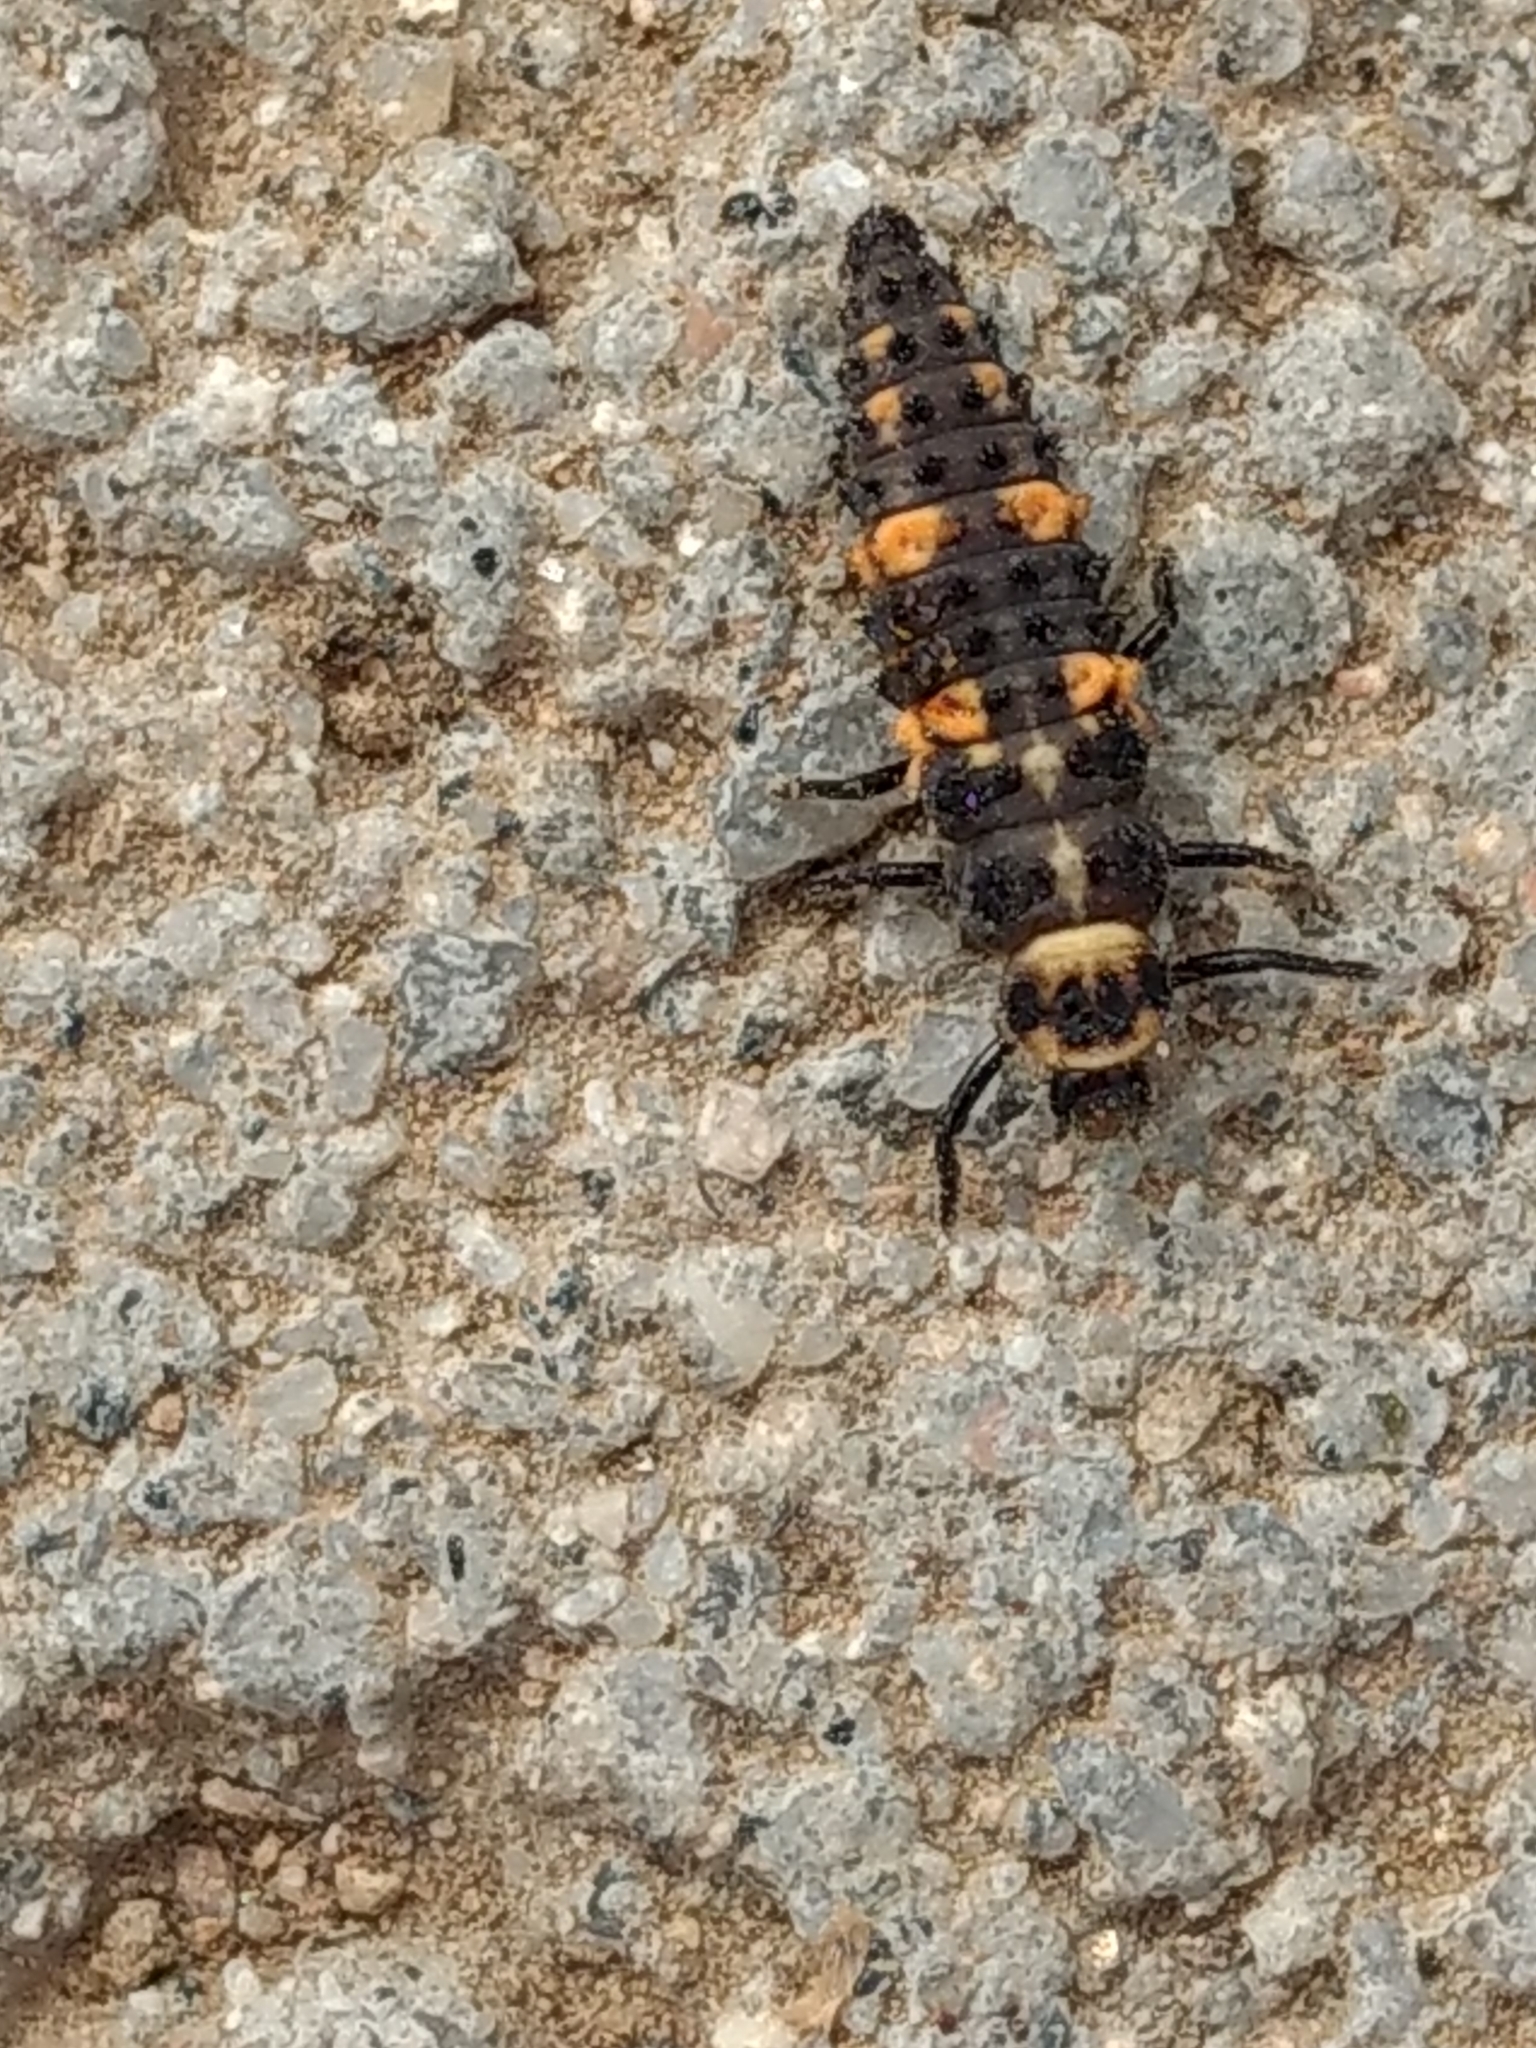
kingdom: Animalia
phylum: Arthropoda
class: Insecta
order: Coleoptera
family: Coccinellidae
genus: Hippodamia
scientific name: Hippodamia convergens
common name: Convergent lady beetle
